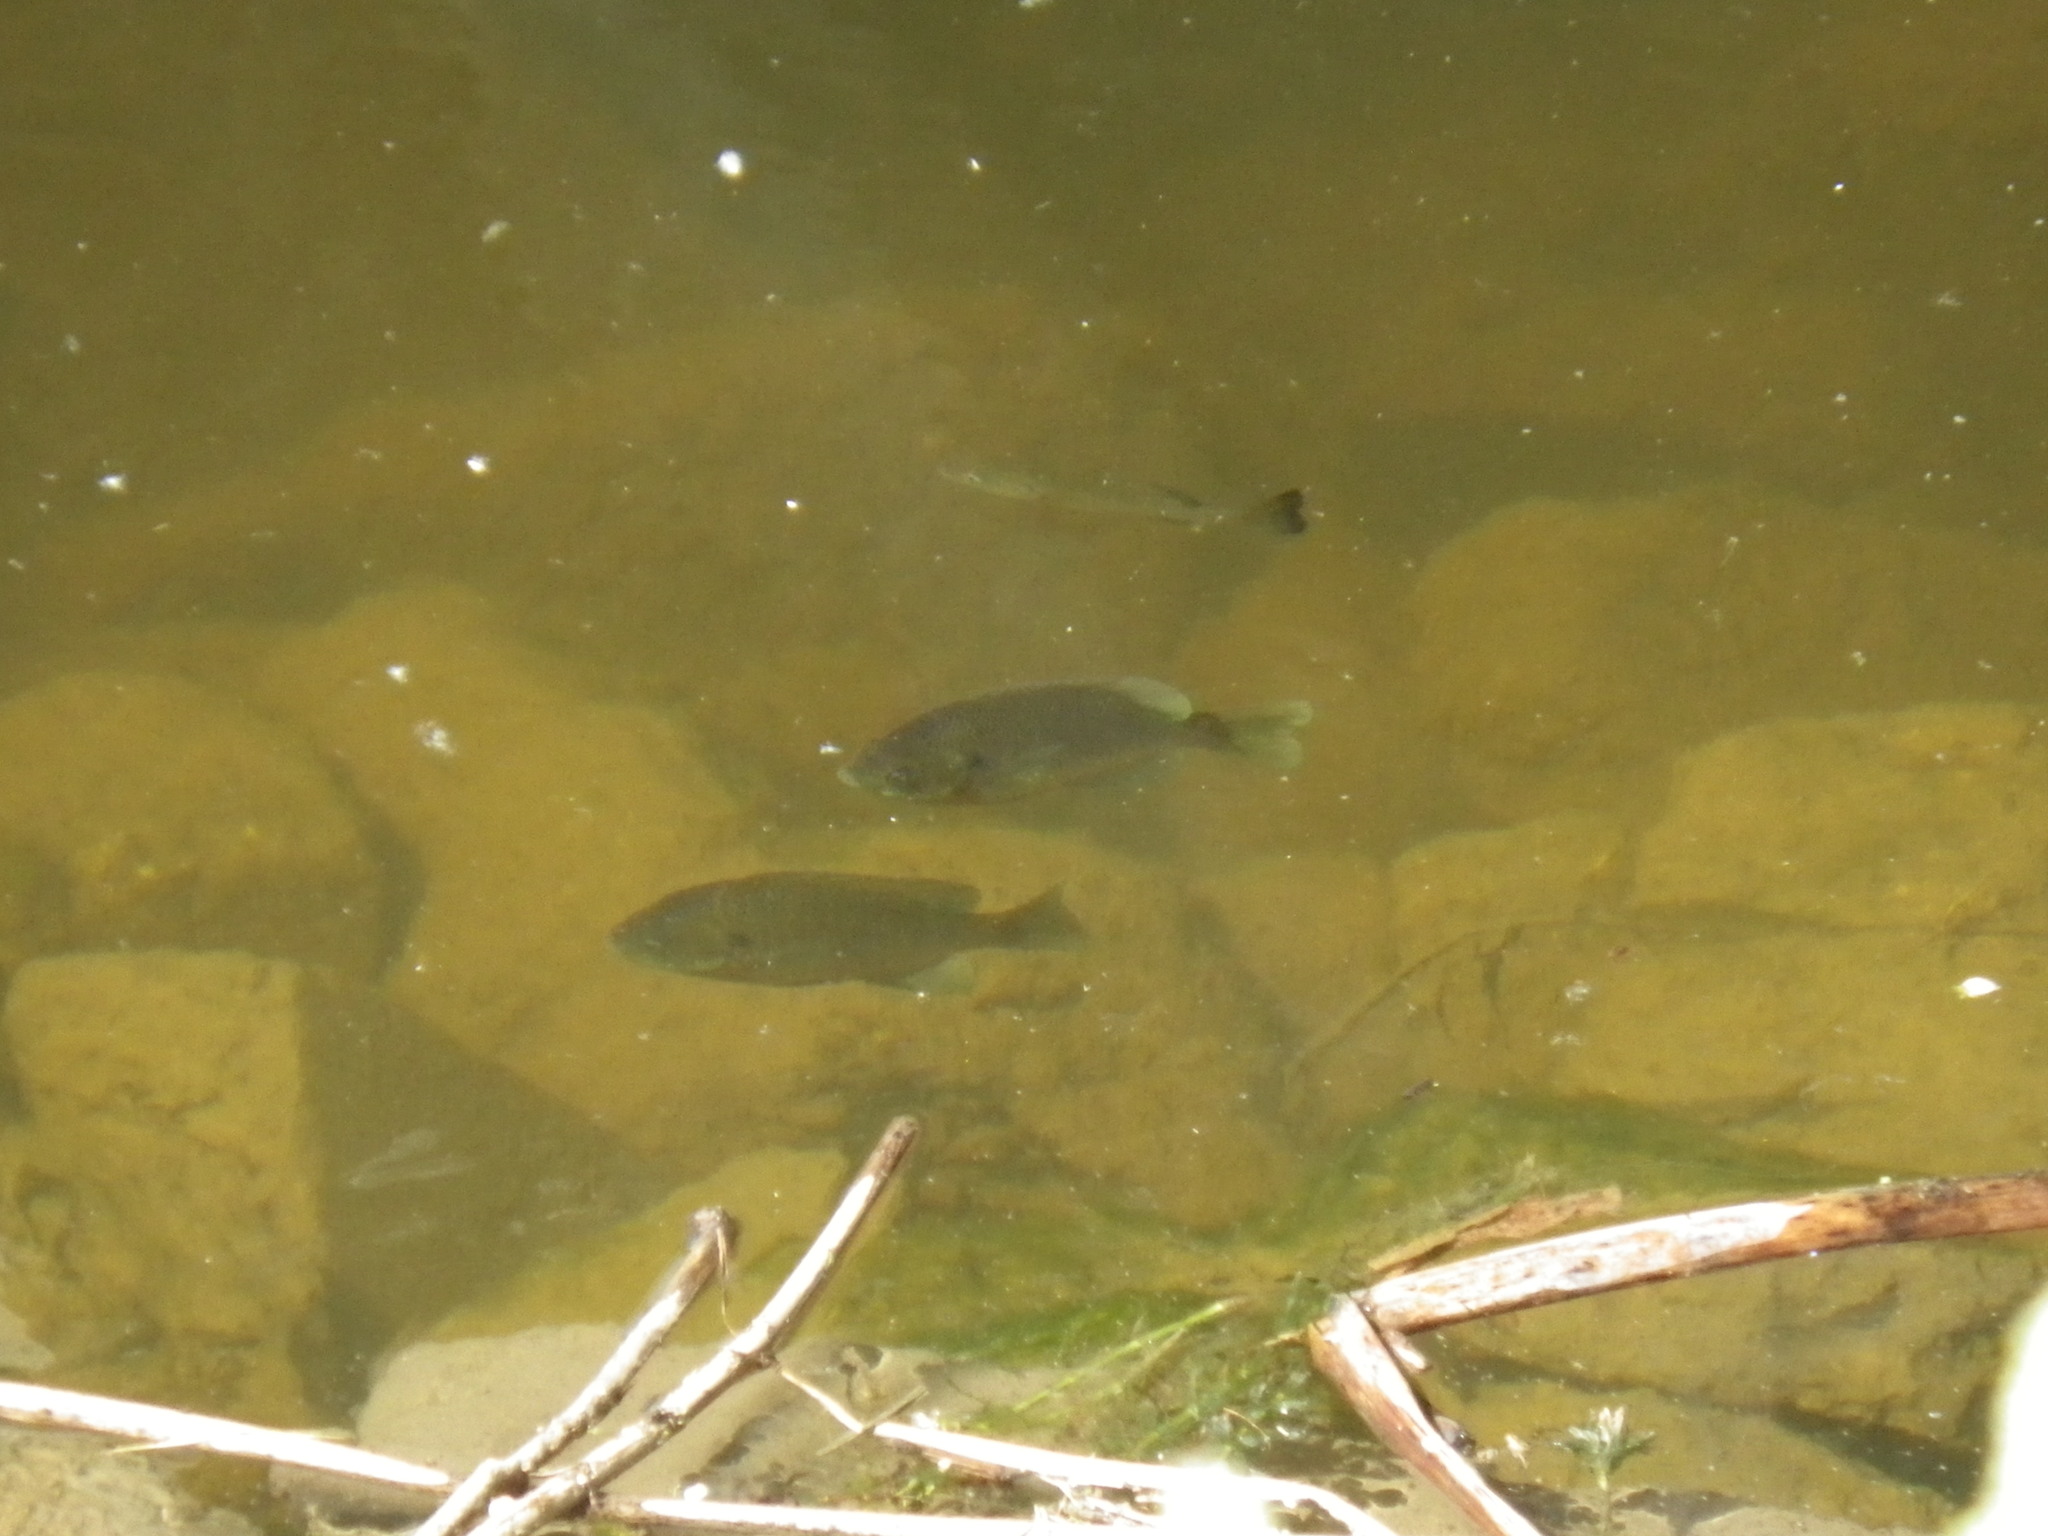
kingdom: Animalia
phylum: Chordata
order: Perciformes
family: Centrarchidae
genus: Lepomis
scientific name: Lepomis macrochirus
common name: Bluegill
